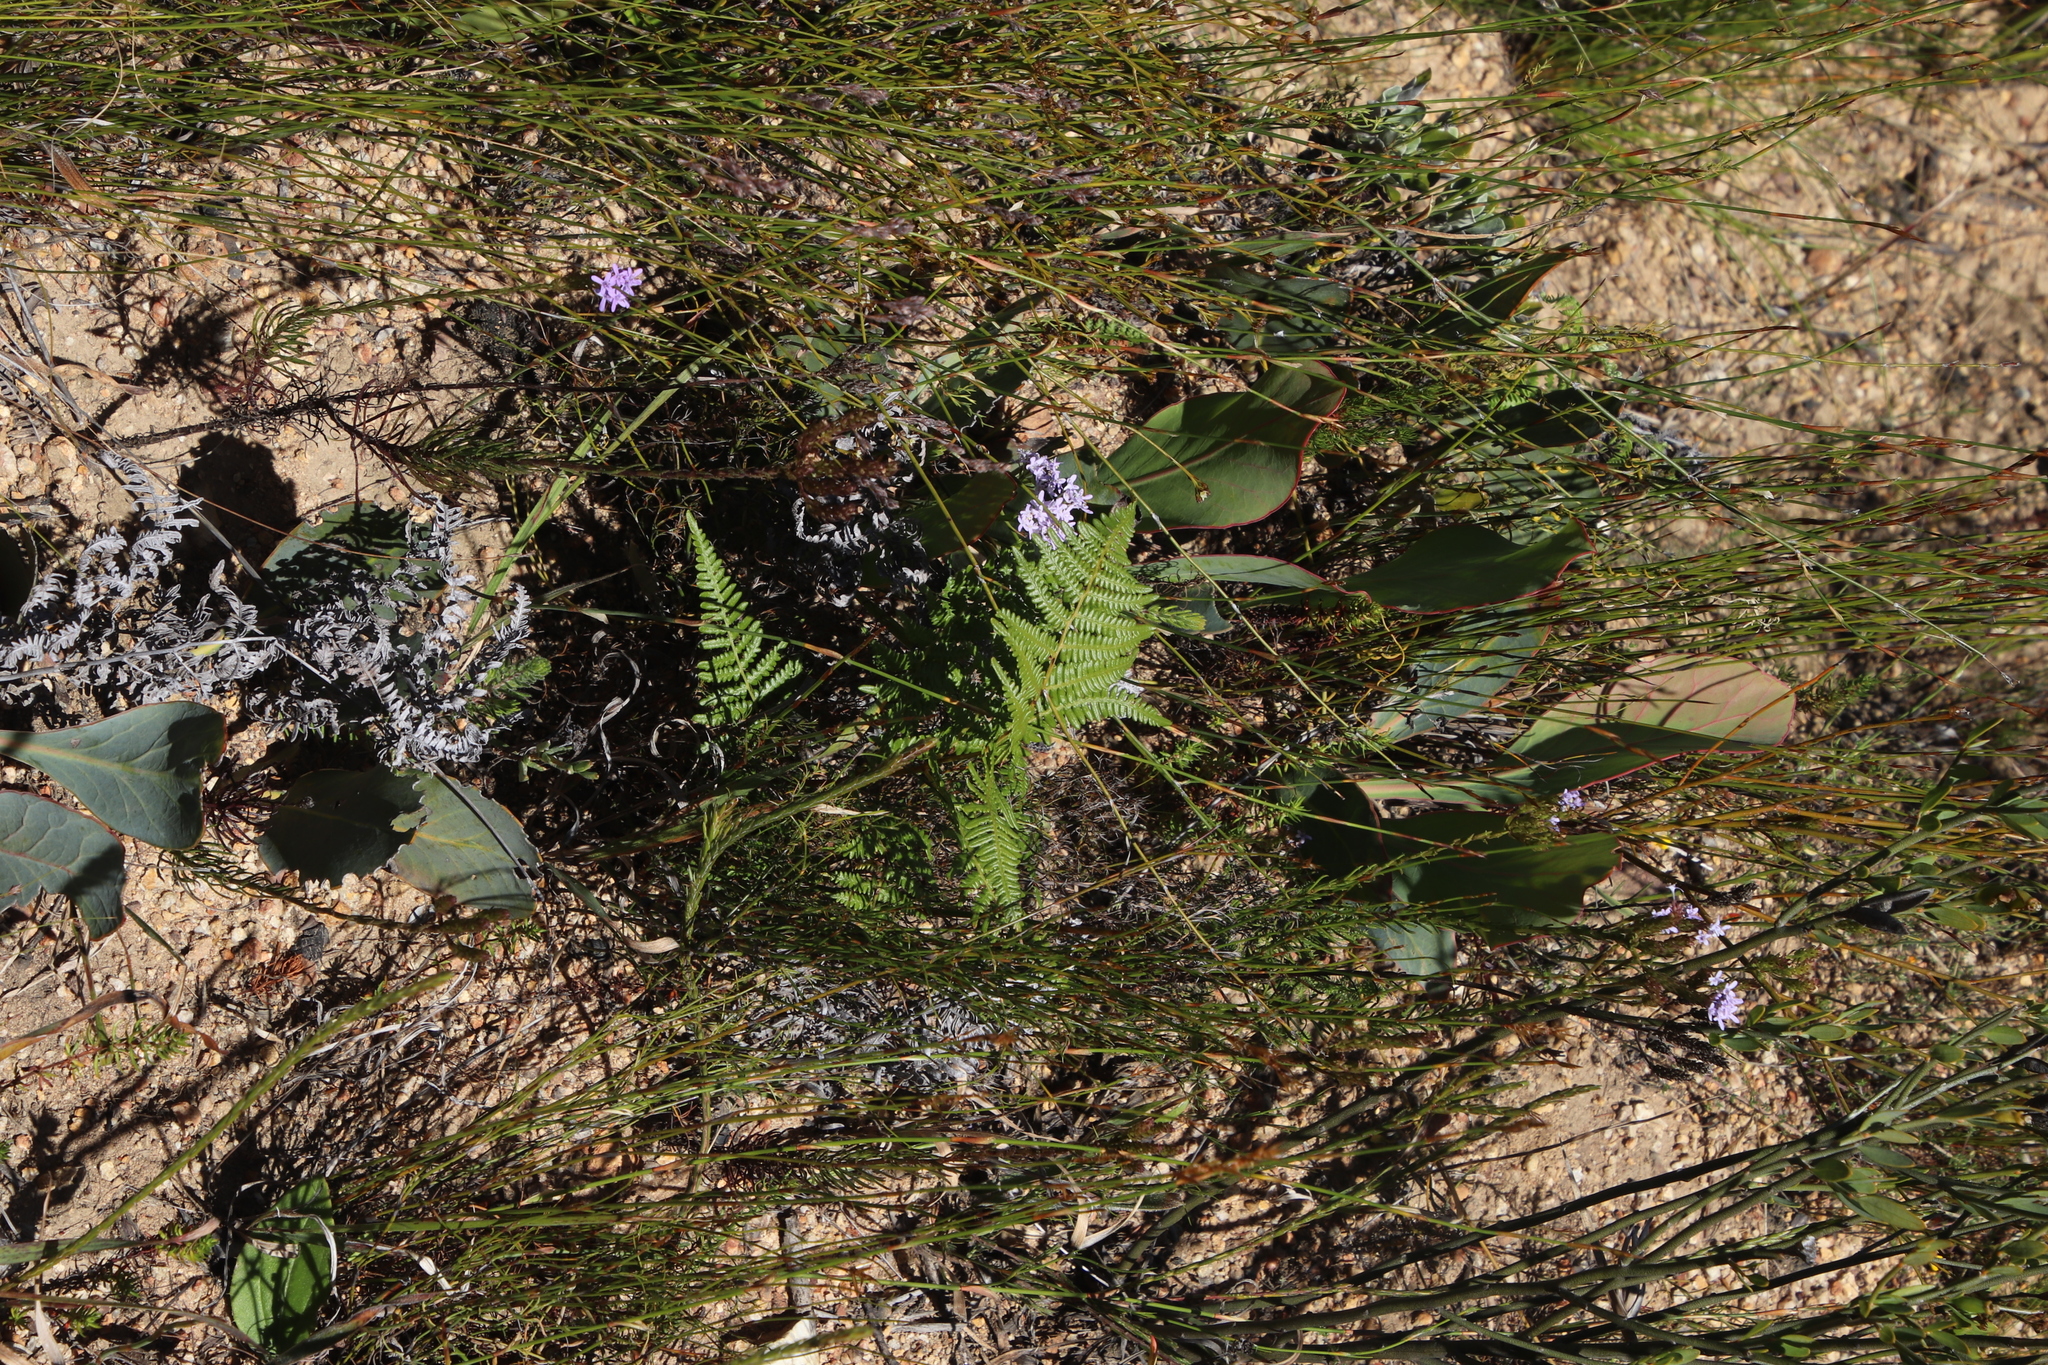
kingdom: Plantae
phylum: Tracheophyta
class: Magnoliopsida
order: Proteales
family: Proteaceae
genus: Protea
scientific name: Protea acaulos
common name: Common ground sugarbush
